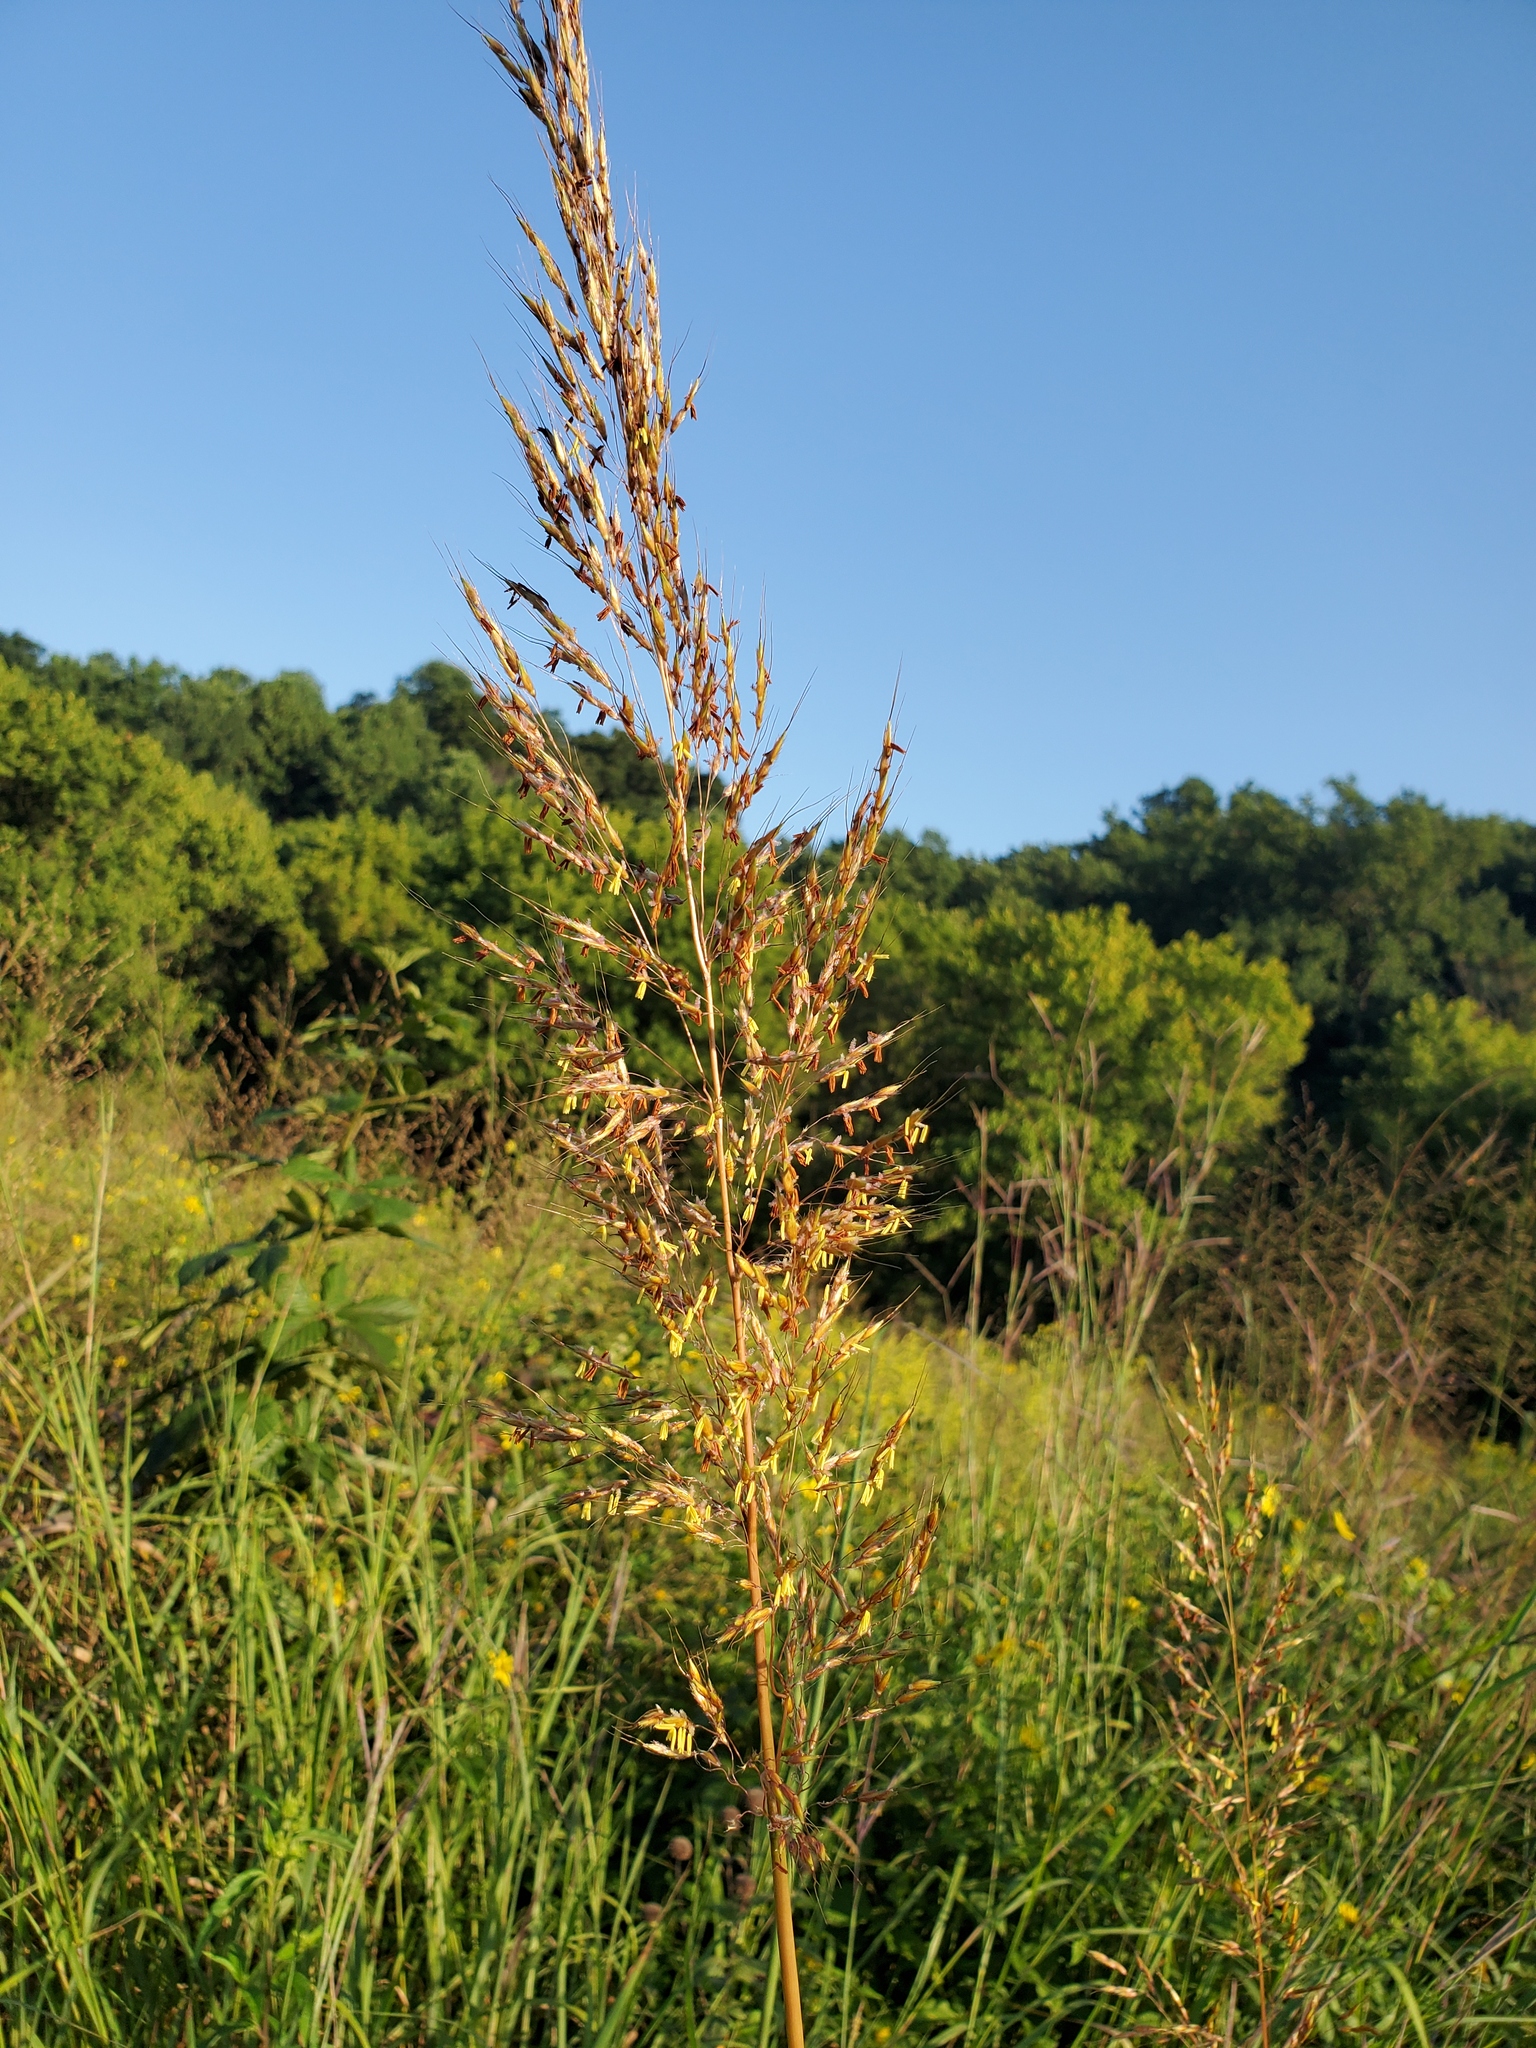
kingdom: Plantae
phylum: Tracheophyta
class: Liliopsida
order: Poales
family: Poaceae
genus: Sorghastrum
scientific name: Sorghastrum nutans
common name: Indian grass
